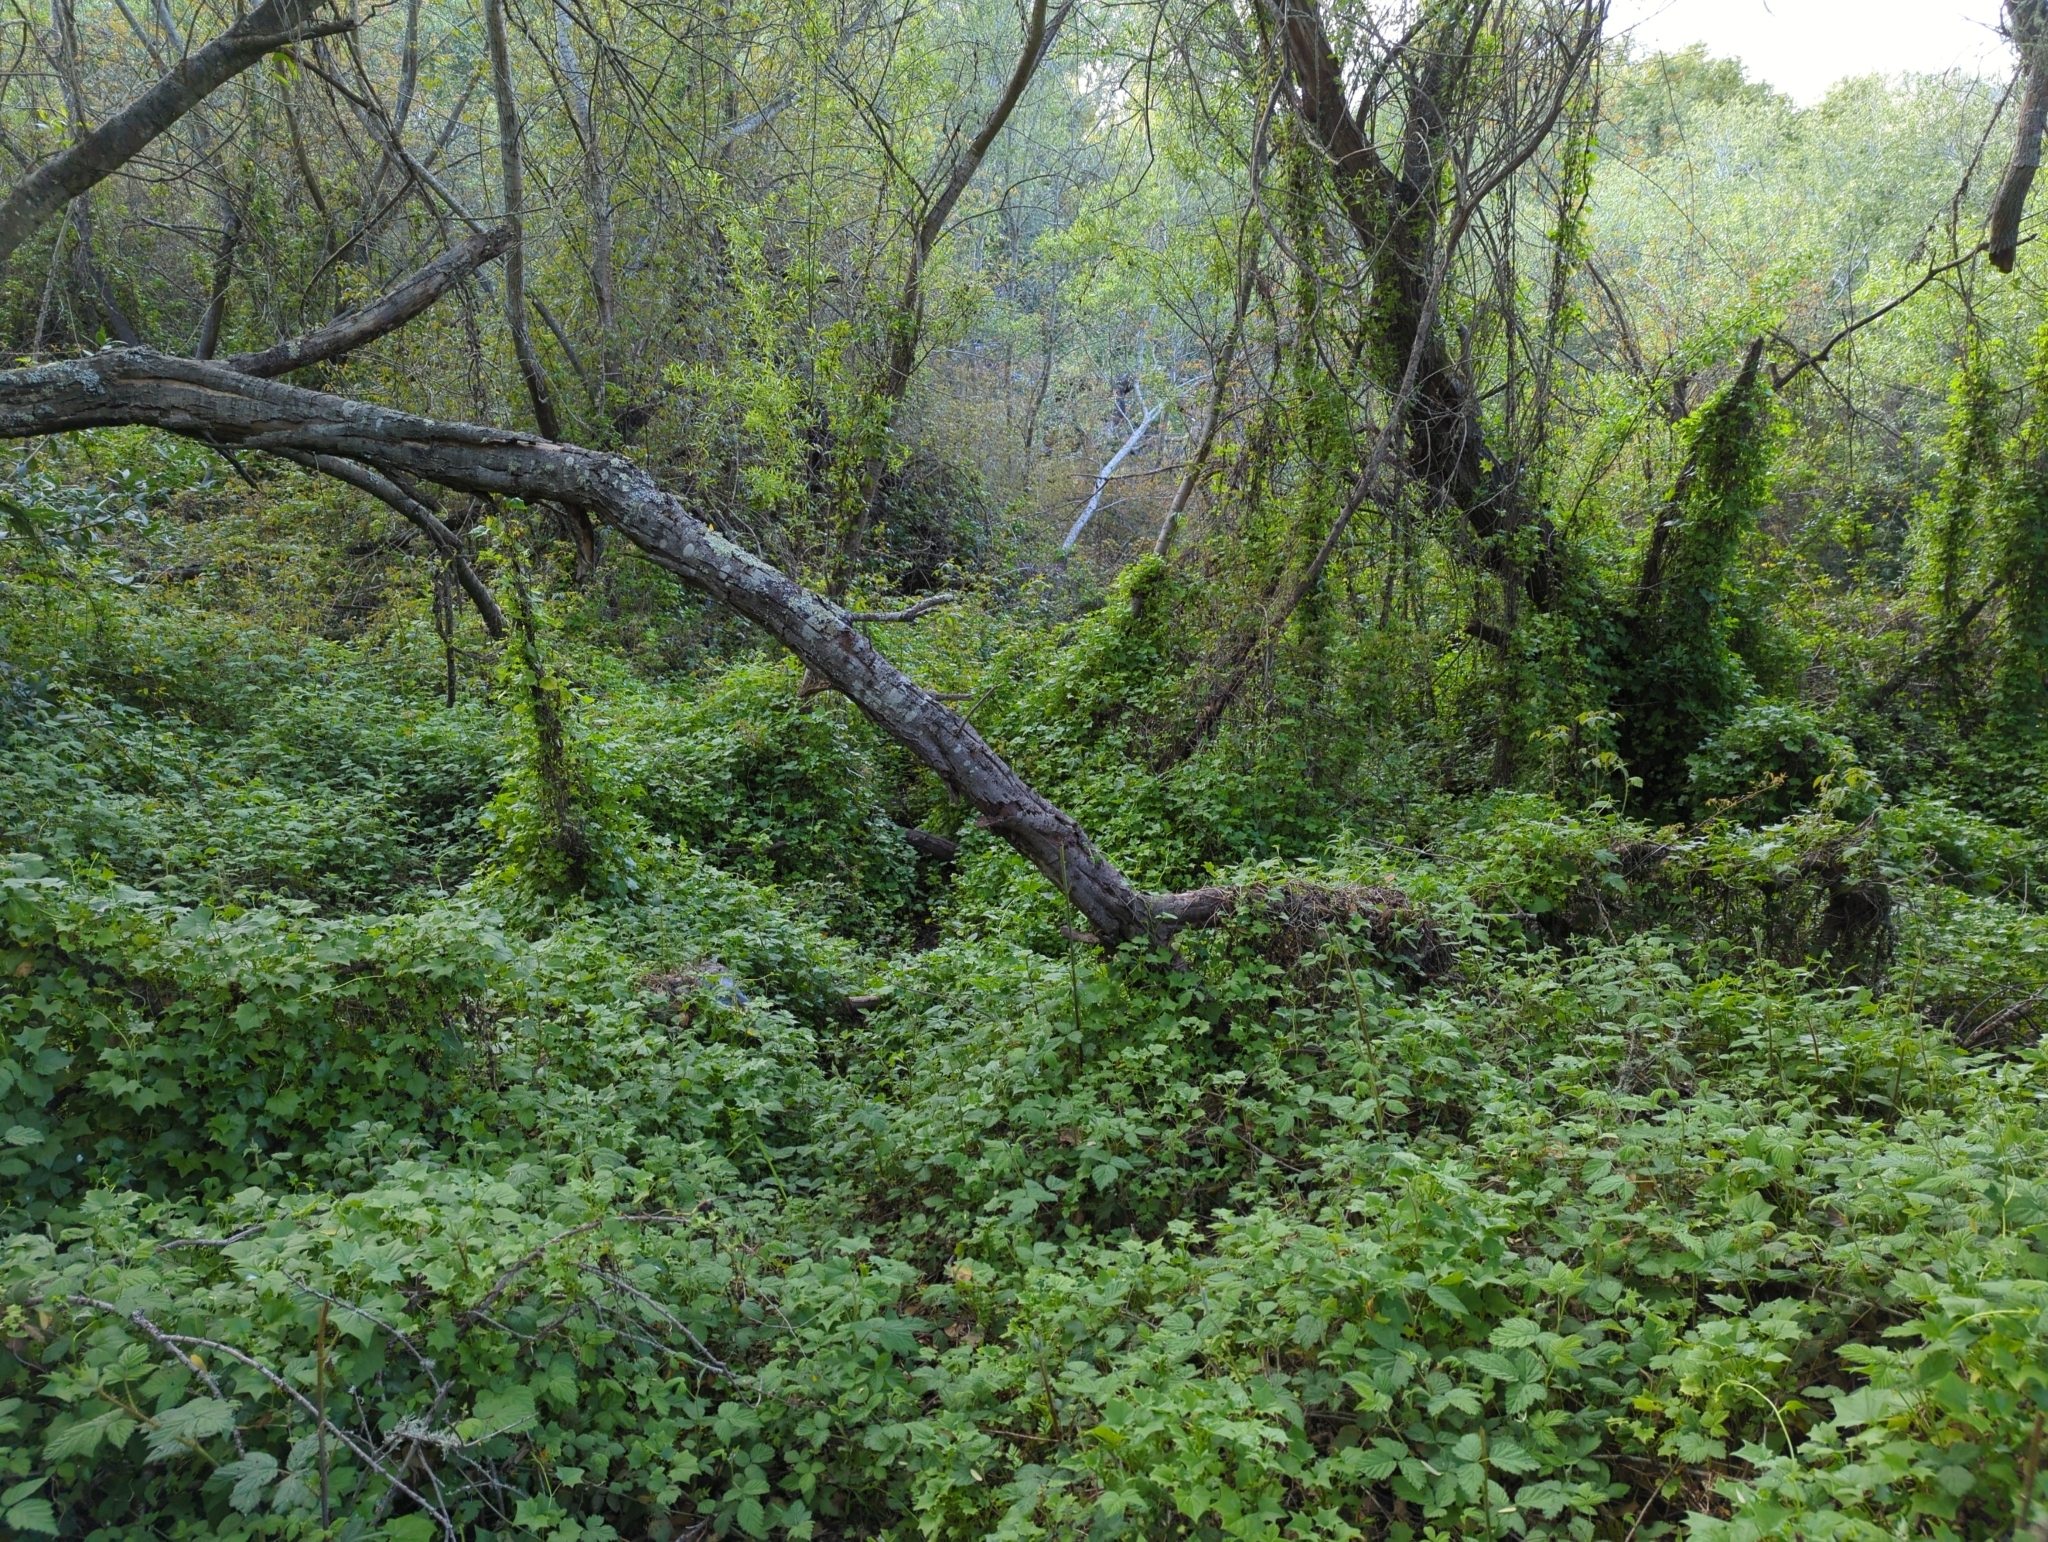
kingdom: Plantae
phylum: Tracheophyta
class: Magnoliopsida
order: Asterales
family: Asteraceae
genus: Delairea
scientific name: Delairea odorata
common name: Cape-ivy
